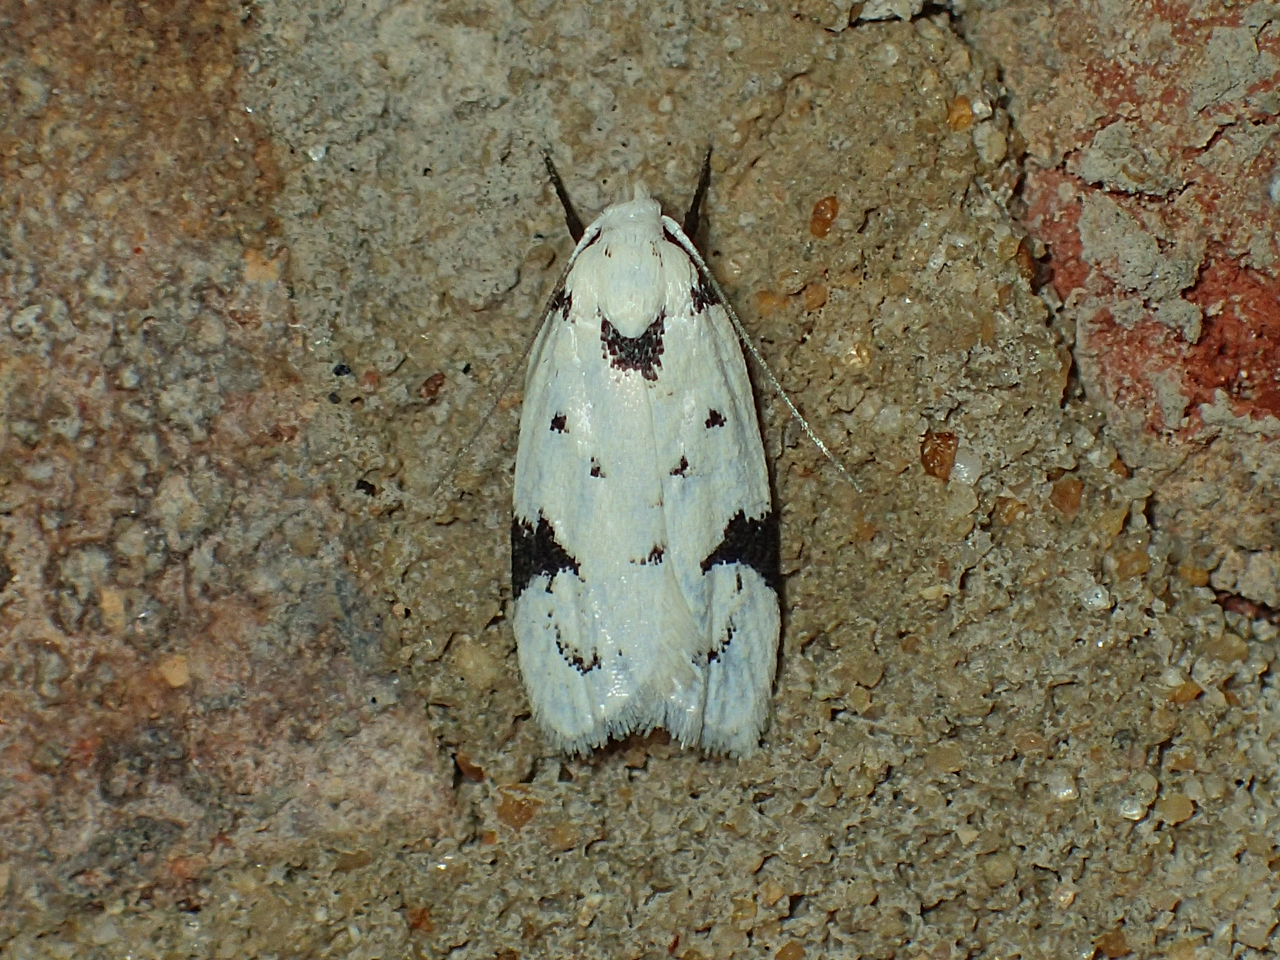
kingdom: Animalia
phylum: Arthropoda
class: Insecta
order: Lepidoptera
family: Oecophoridae
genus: Inga
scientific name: Inga sparsiciliella
